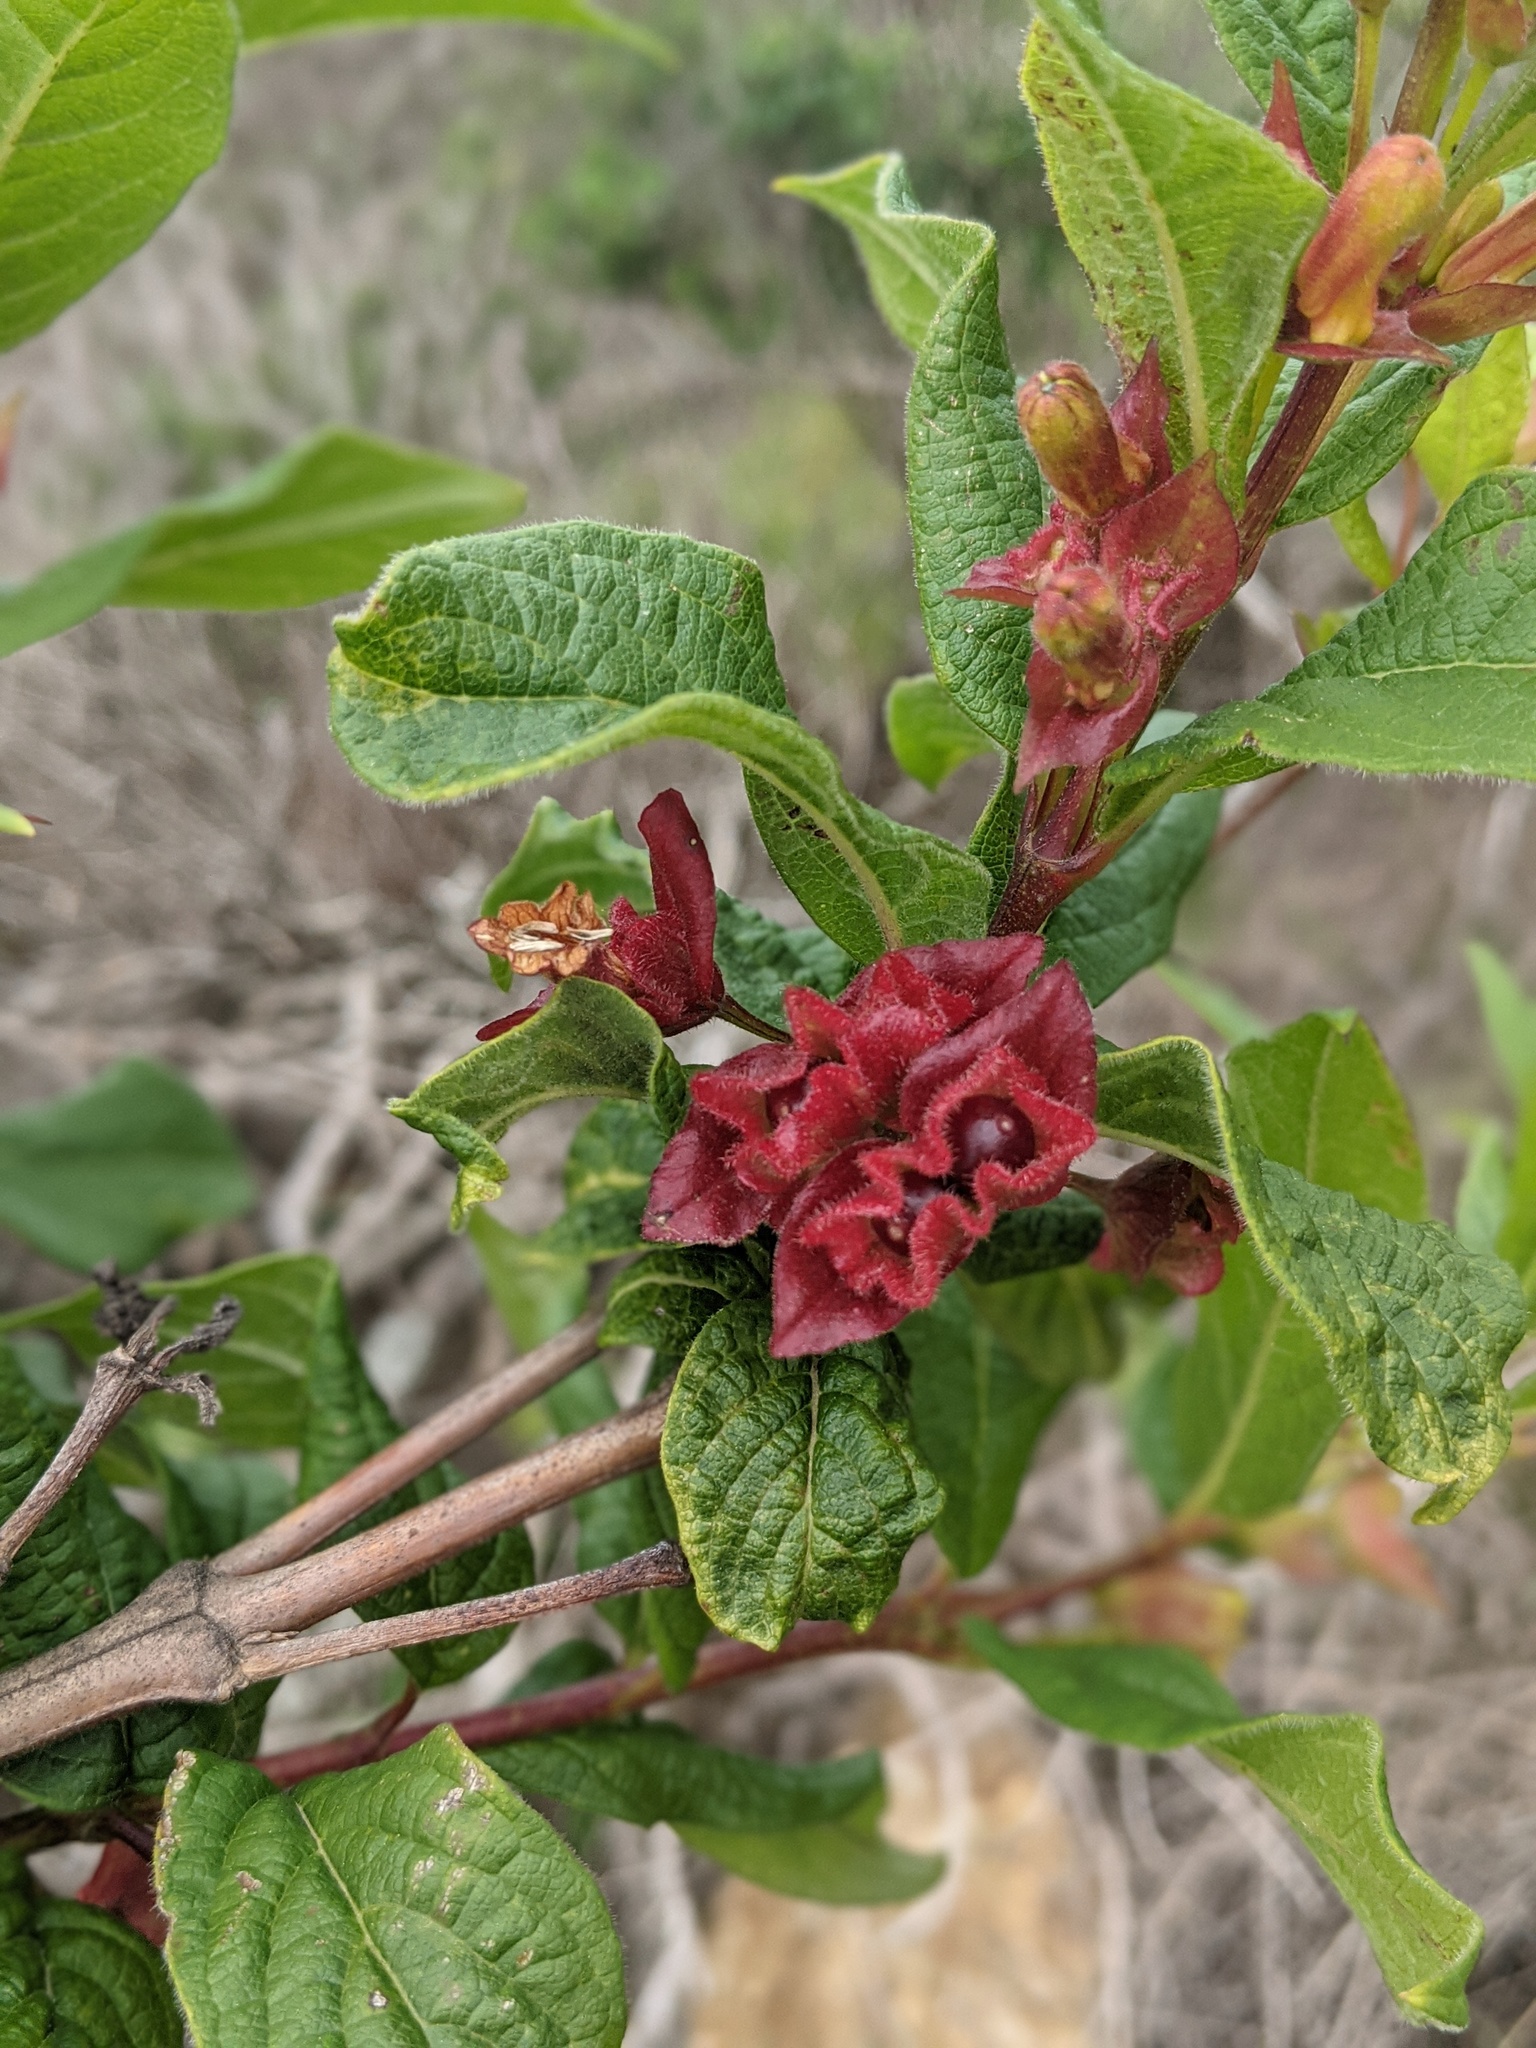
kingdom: Plantae
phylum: Tracheophyta
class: Magnoliopsida
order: Dipsacales
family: Caprifoliaceae
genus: Lonicera
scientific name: Lonicera involucrata
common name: Californian honeysuckle
